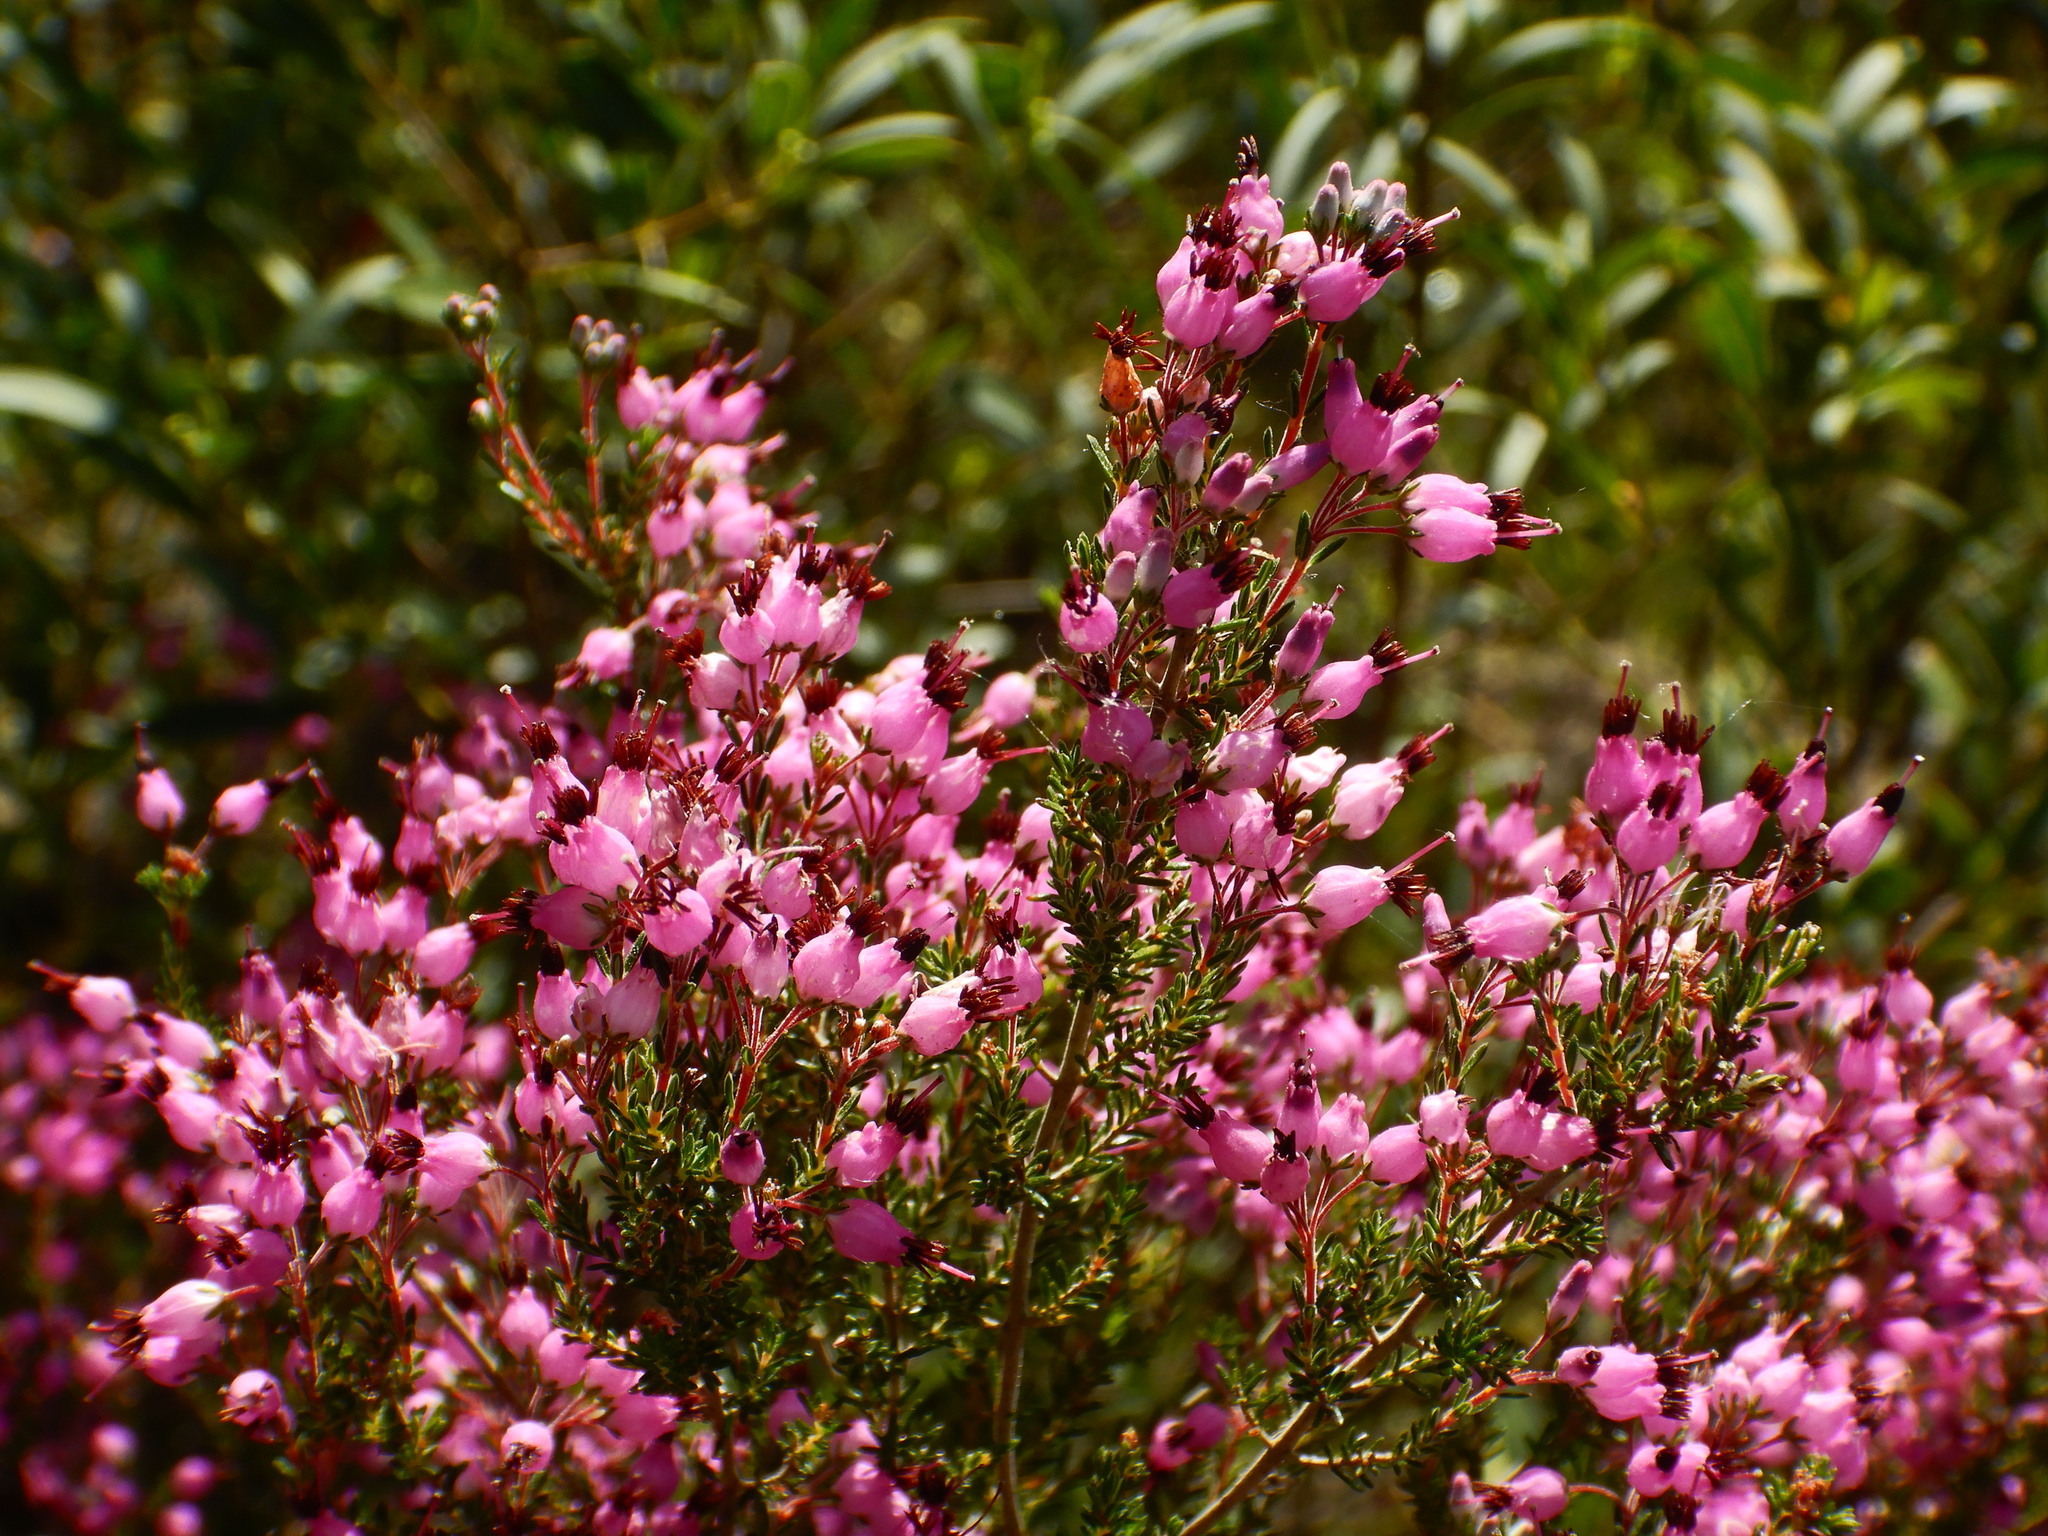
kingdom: Plantae
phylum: Tracheophyta
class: Magnoliopsida
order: Ericales
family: Ericaceae
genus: Erica
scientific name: Erica umbellata
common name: Dwarf spanish heath
